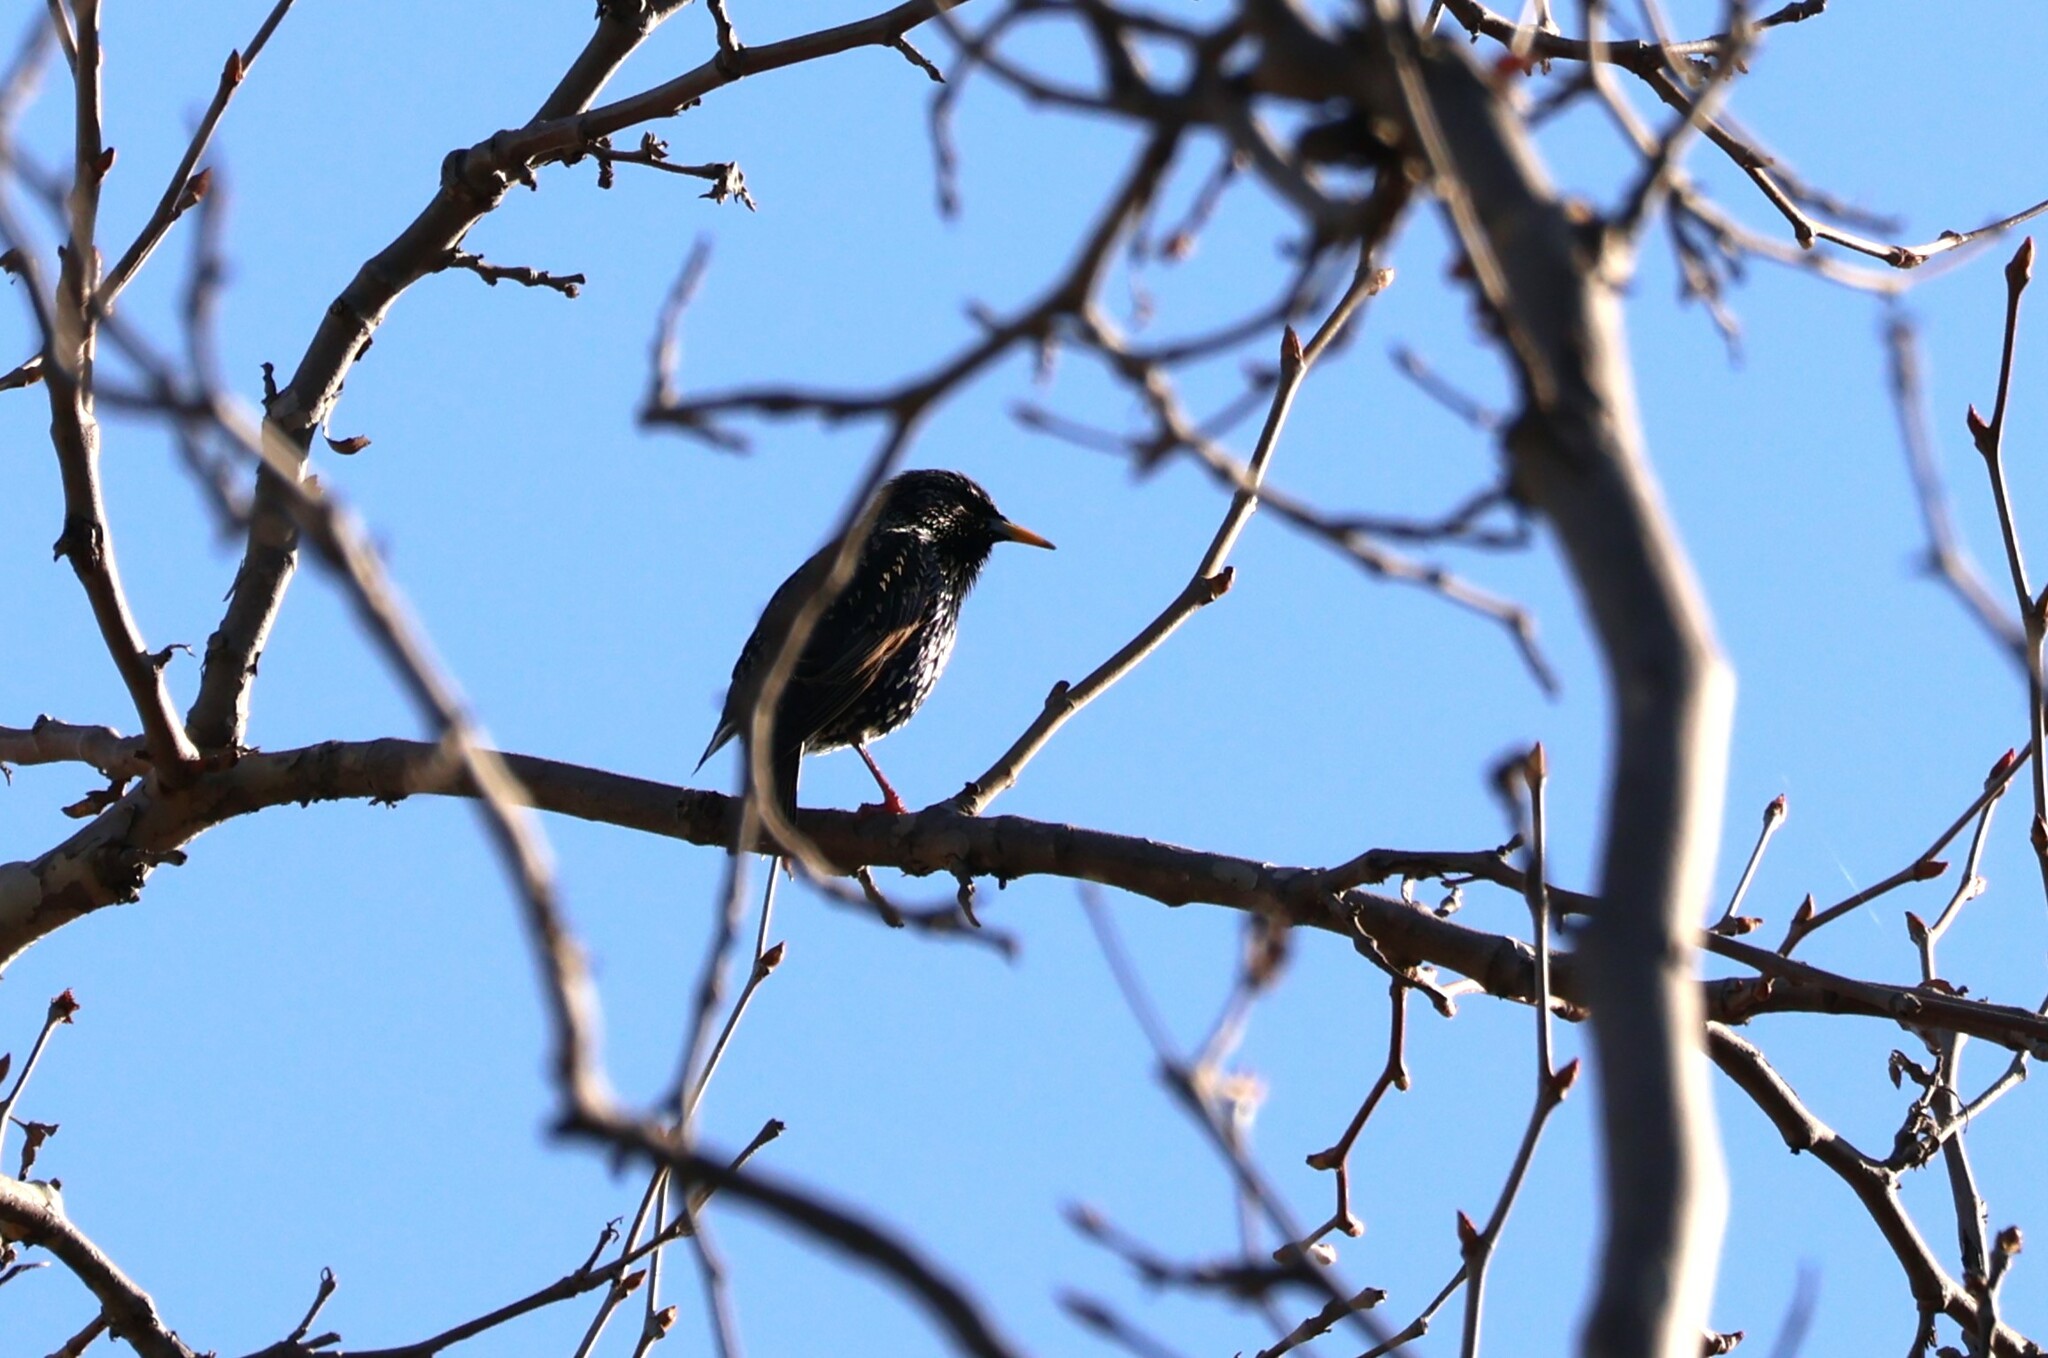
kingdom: Animalia
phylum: Chordata
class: Aves
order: Passeriformes
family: Sturnidae
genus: Sturnus
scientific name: Sturnus vulgaris
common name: Common starling
